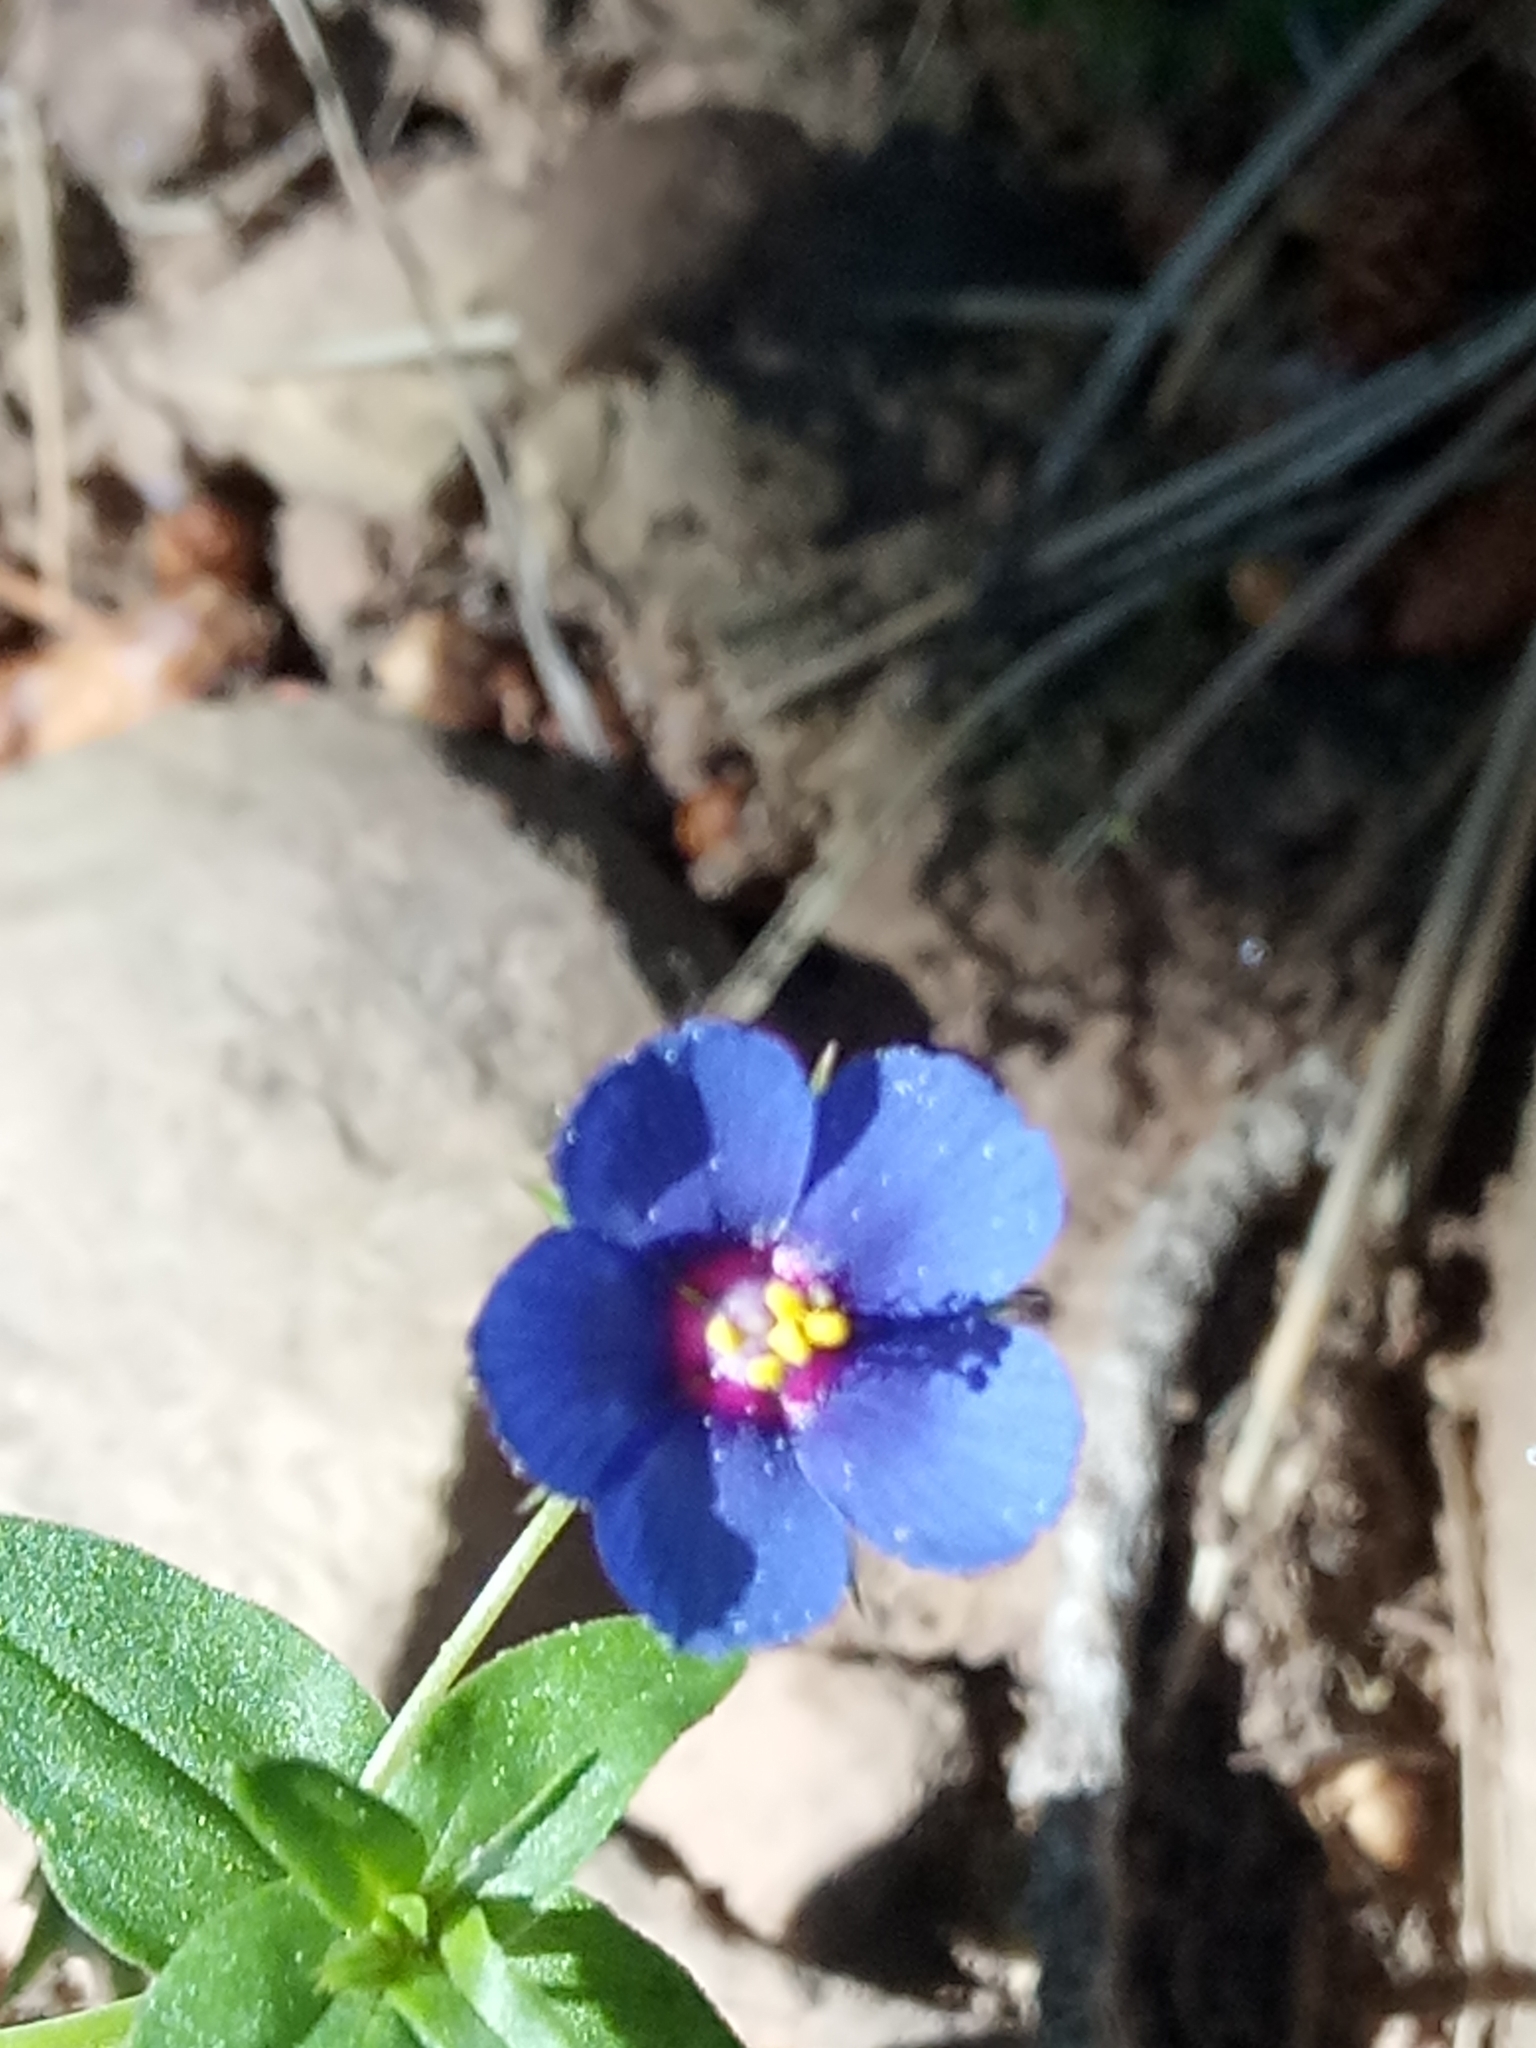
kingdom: Plantae
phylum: Tracheophyta
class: Magnoliopsida
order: Ericales
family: Primulaceae
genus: Lysimachia
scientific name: Lysimachia loeflingii
